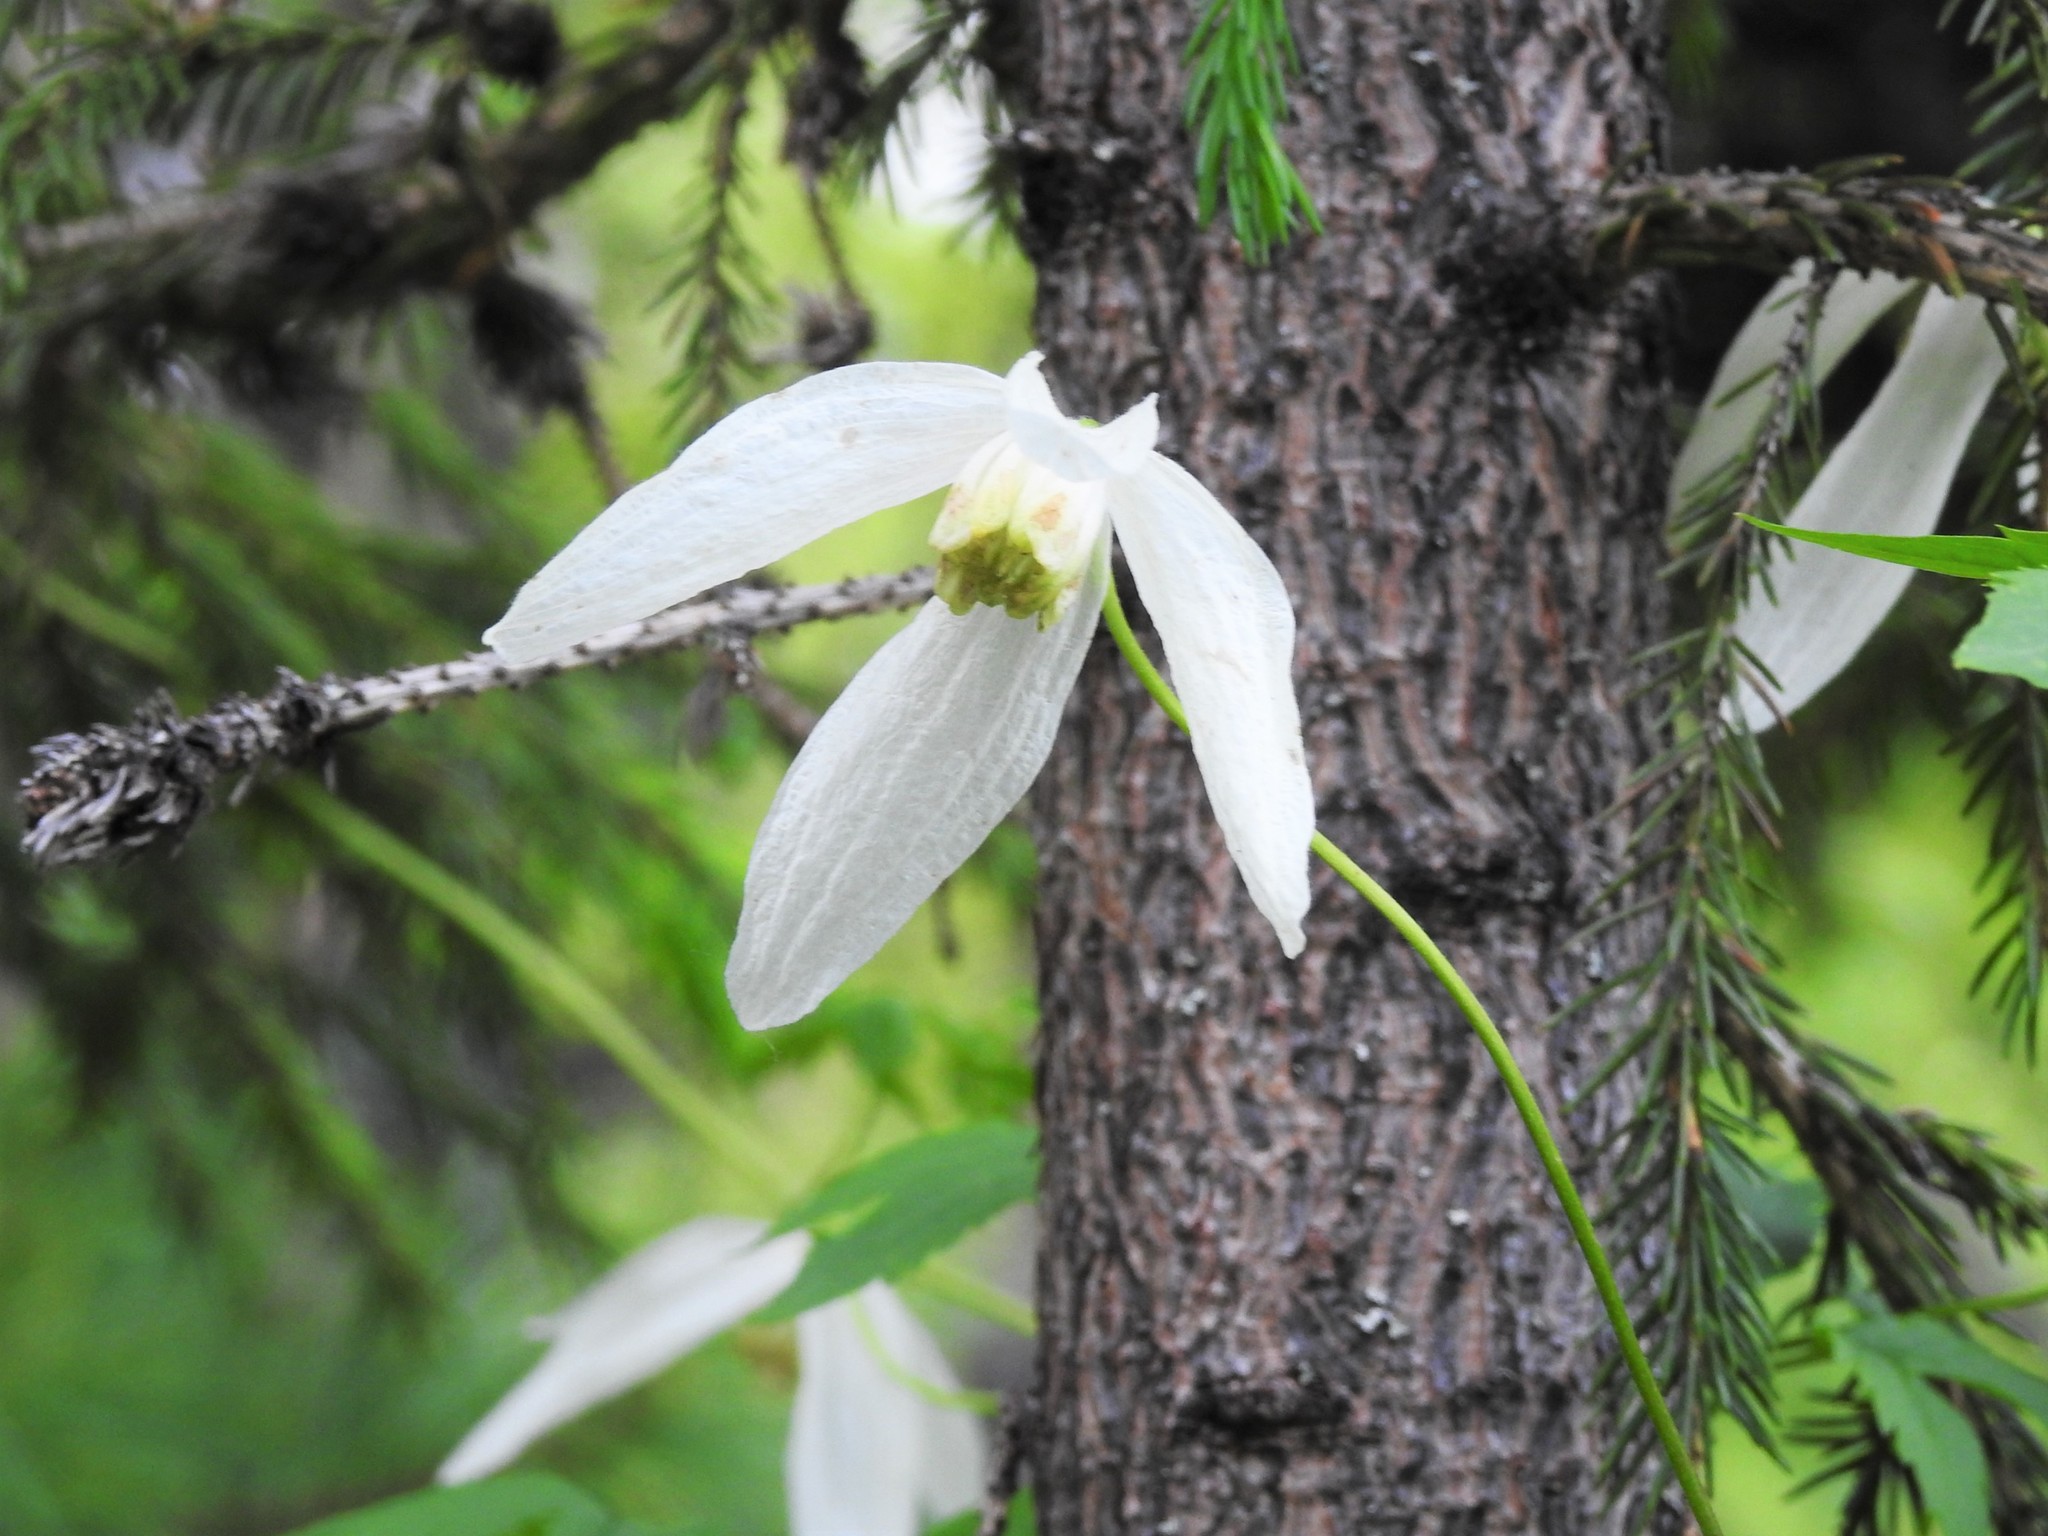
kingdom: Plantae
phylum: Tracheophyta
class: Magnoliopsida
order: Ranunculales
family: Ranunculaceae
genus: Clematis
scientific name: Clematis sibirica
